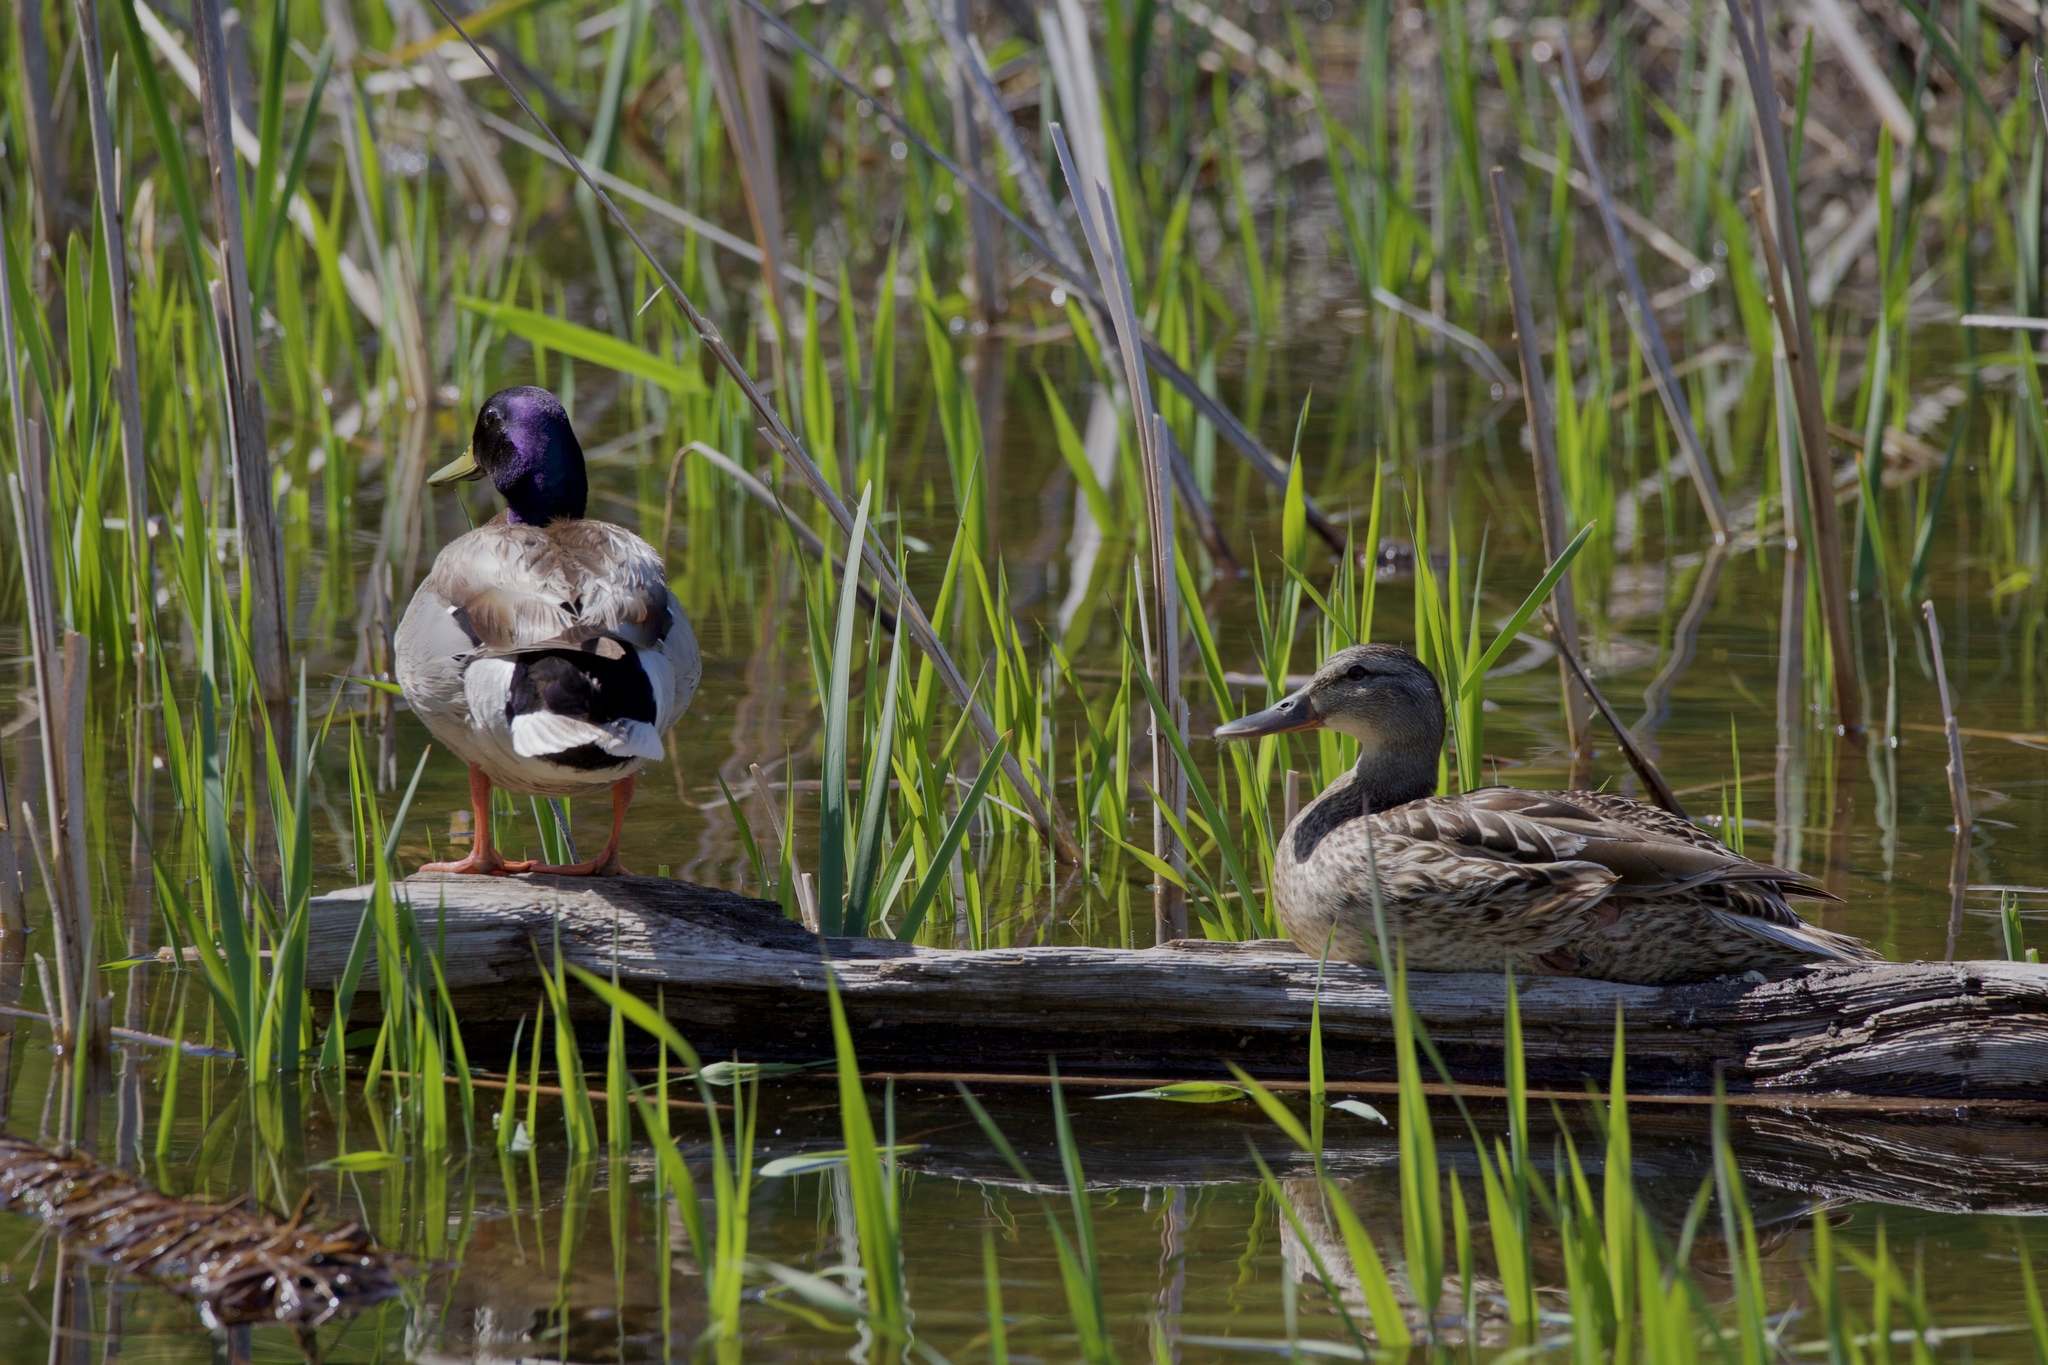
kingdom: Animalia
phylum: Chordata
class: Aves
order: Anseriformes
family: Anatidae
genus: Anas
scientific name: Anas platyrhynchos
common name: Mallard
